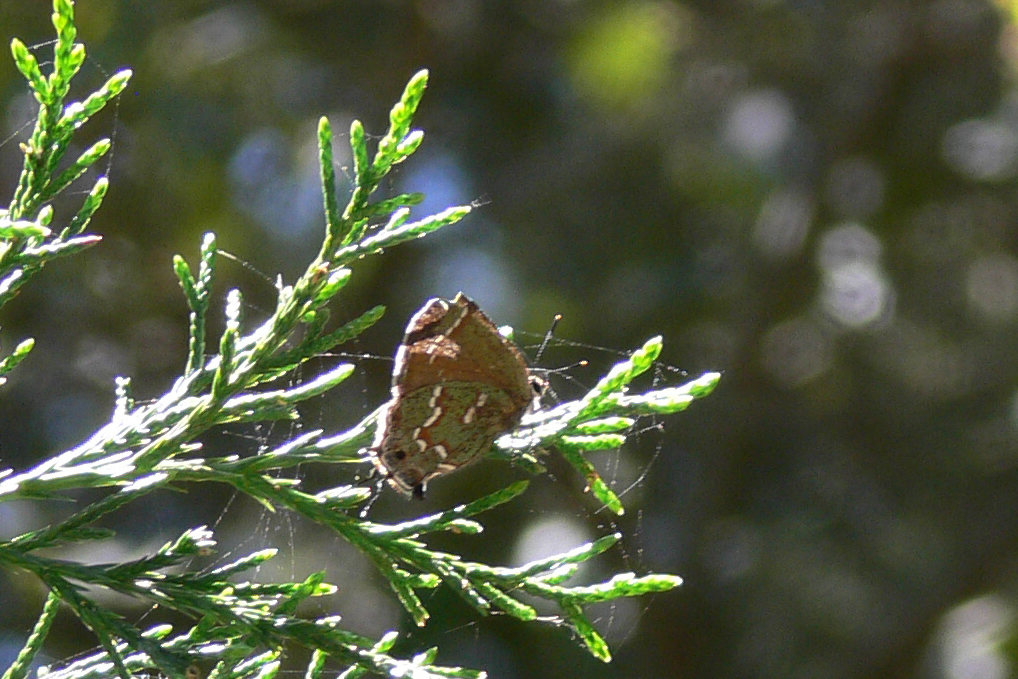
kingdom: Animalia
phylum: Arthropoda
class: Insecta
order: Lepidoptera
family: Lycaenidae
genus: Mitoura
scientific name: Mitoura gryneus
